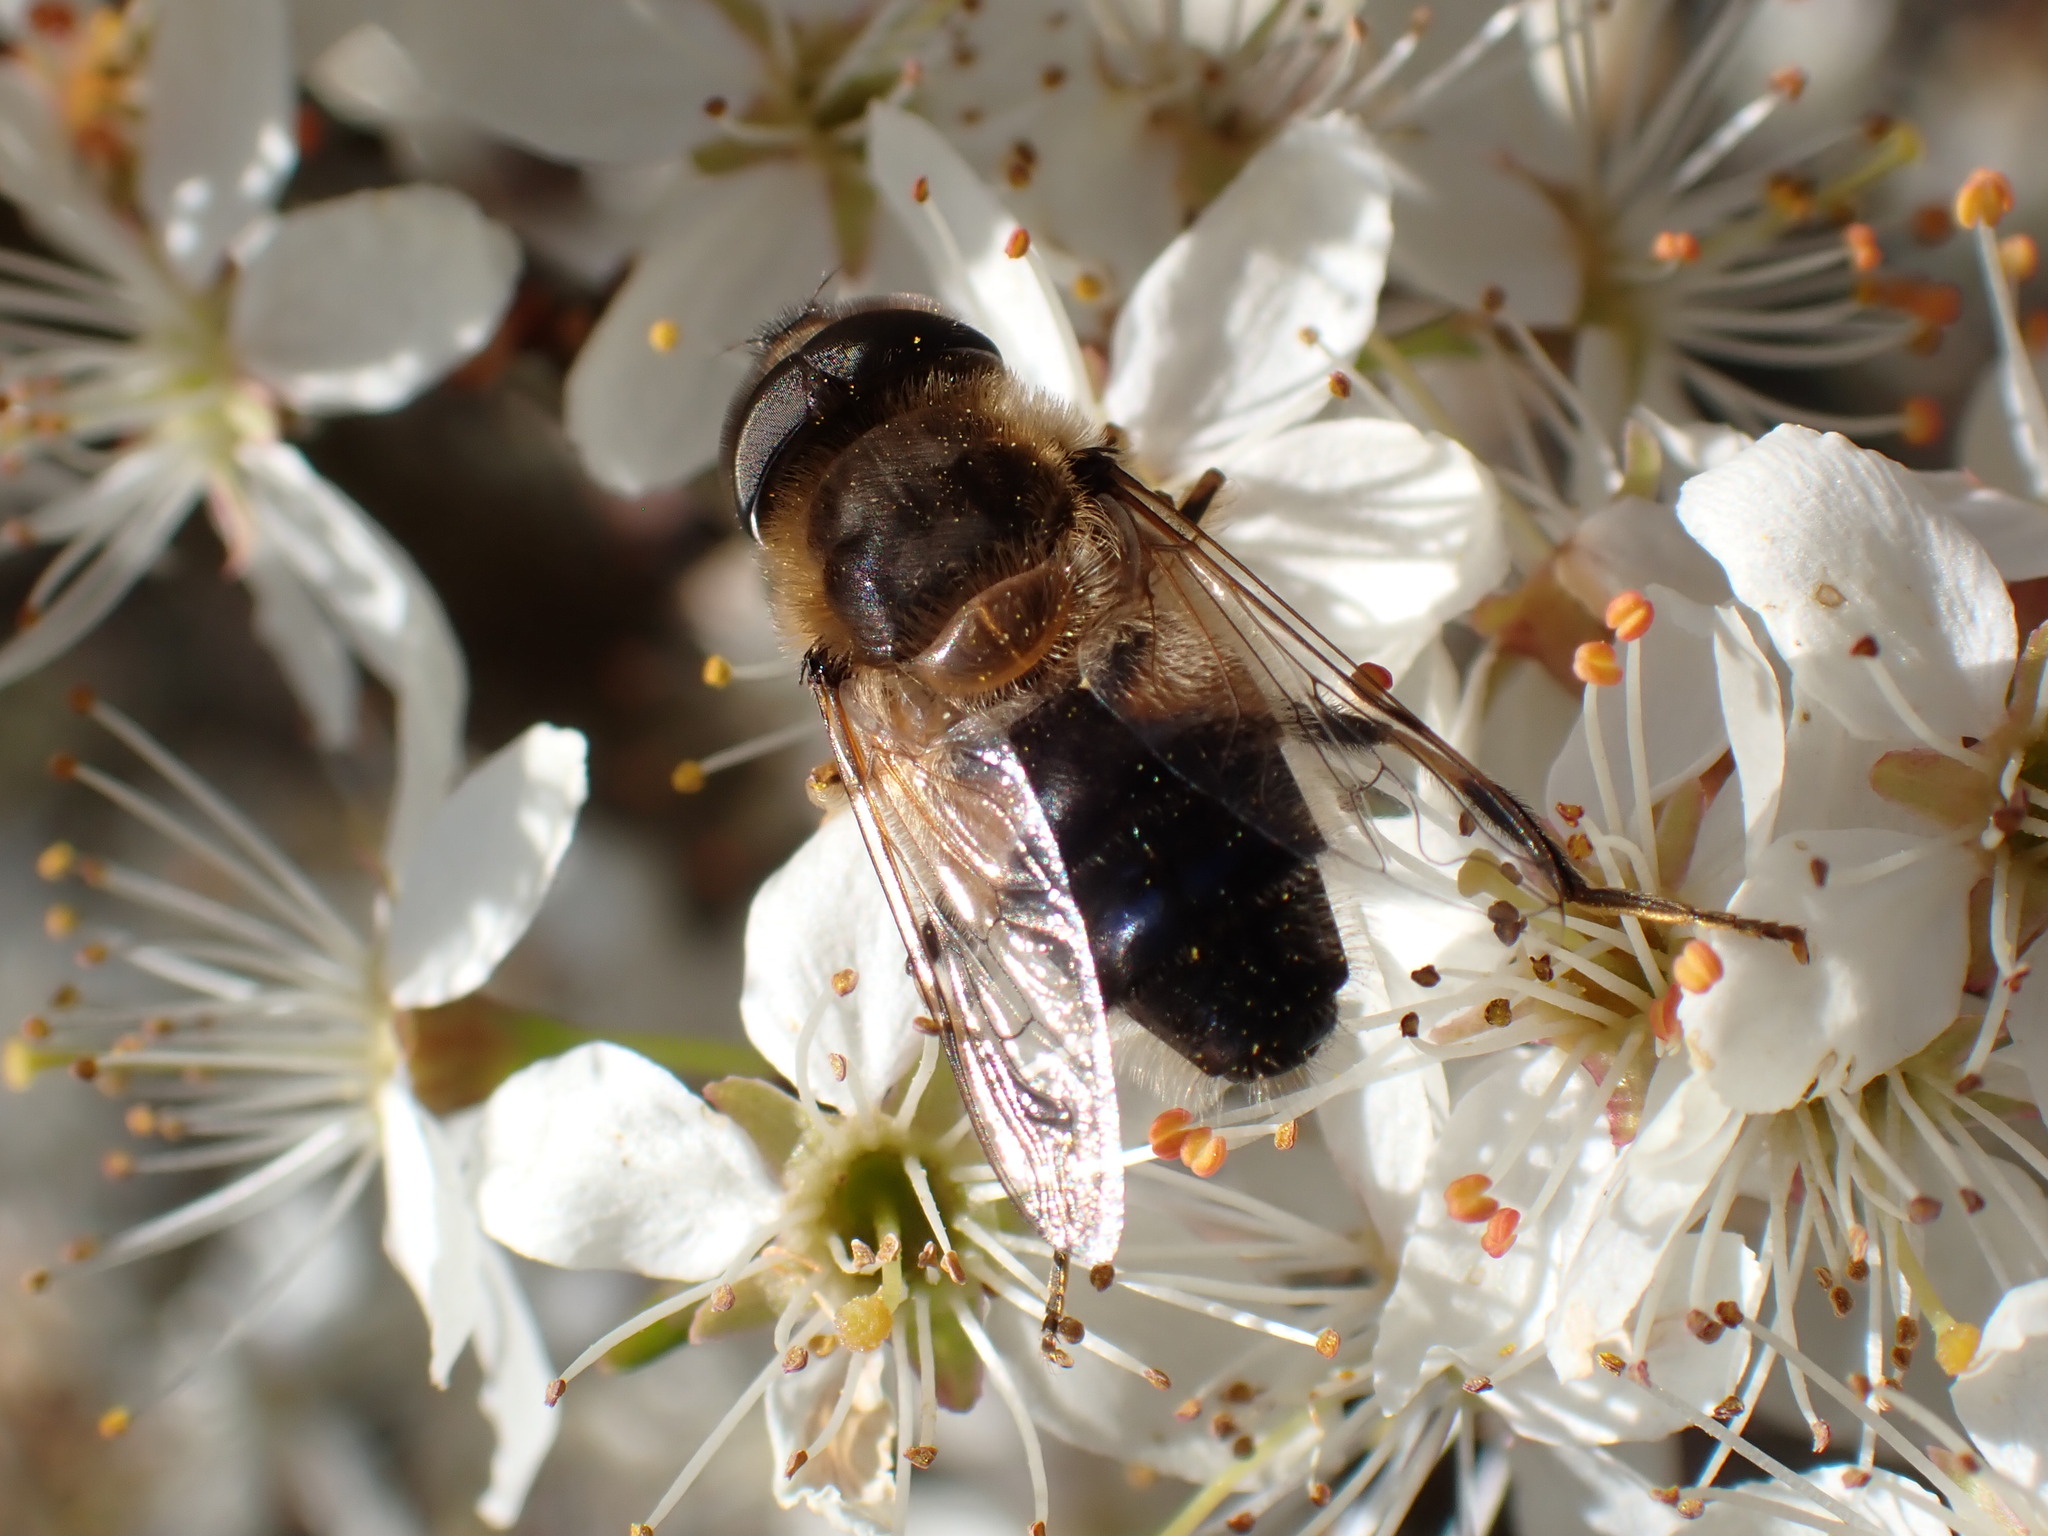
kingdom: Animalia
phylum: Arthropoda
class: Insecta
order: Diptera
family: Syrphidae
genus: Eristalis
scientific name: Eristalis pertinax
